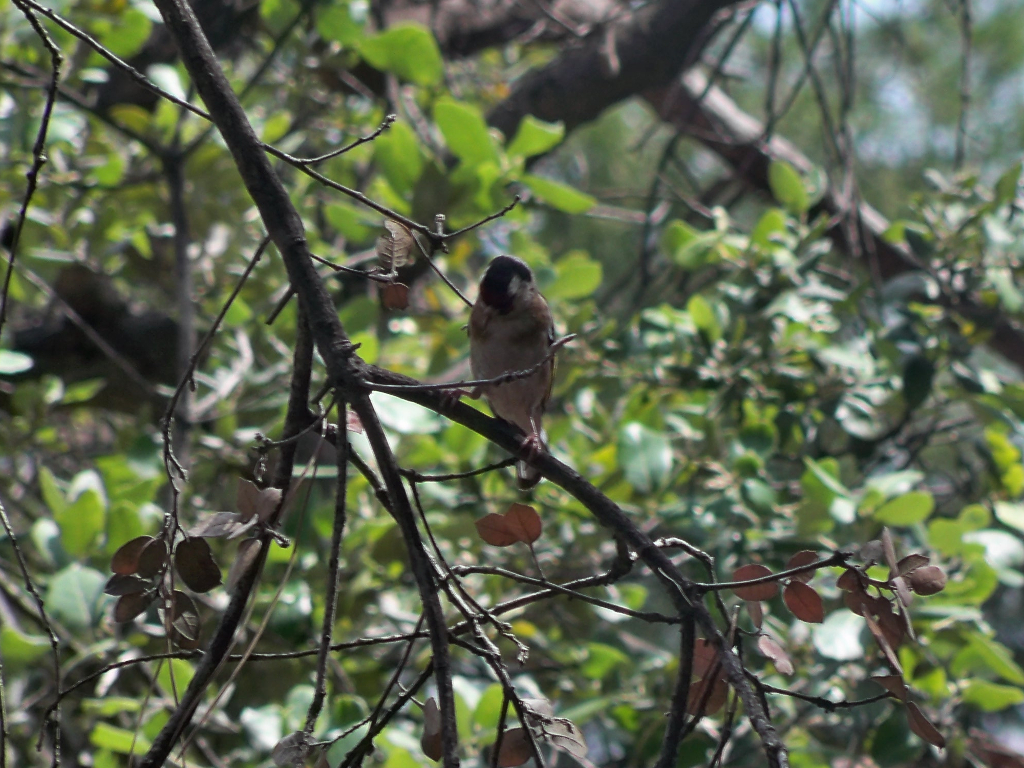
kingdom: Animalia
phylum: Chordata
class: Aves
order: Passeriformes
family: Fringillidae
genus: Carduelis
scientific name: Carduelis carduelis
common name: European goldfinch
